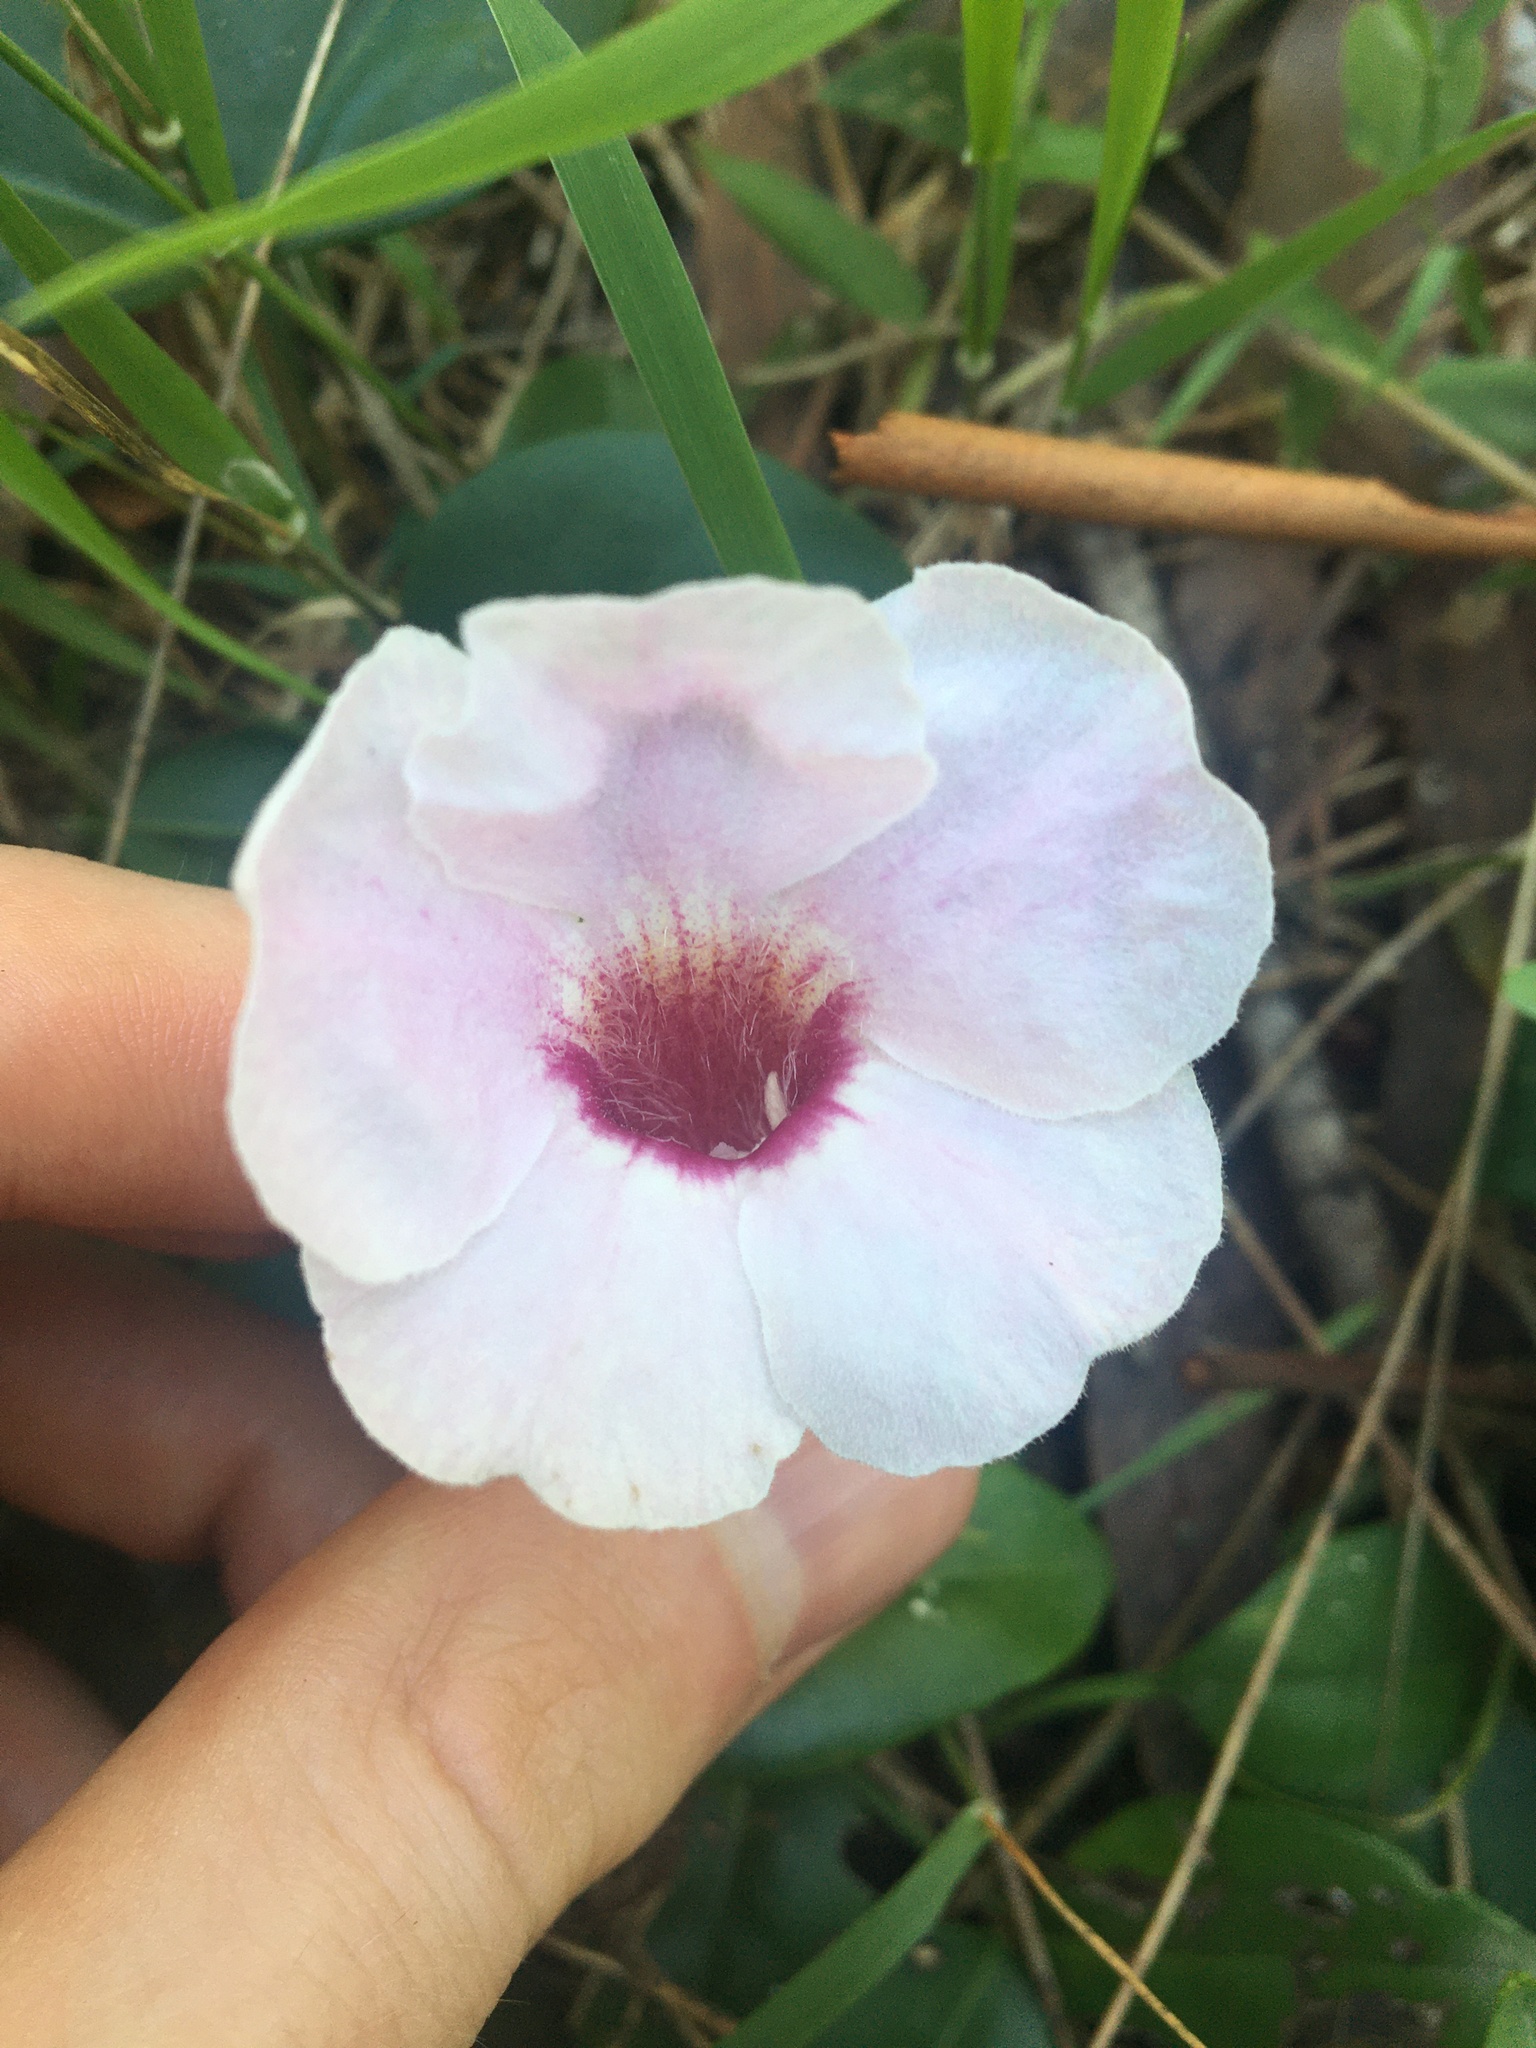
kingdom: Plantae
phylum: Tracheophyta
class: Magnoliopsida
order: Lamiales
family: Bignoniaceae
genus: Pandorea
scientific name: Pandorea jasminoides
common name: Bowerplant
